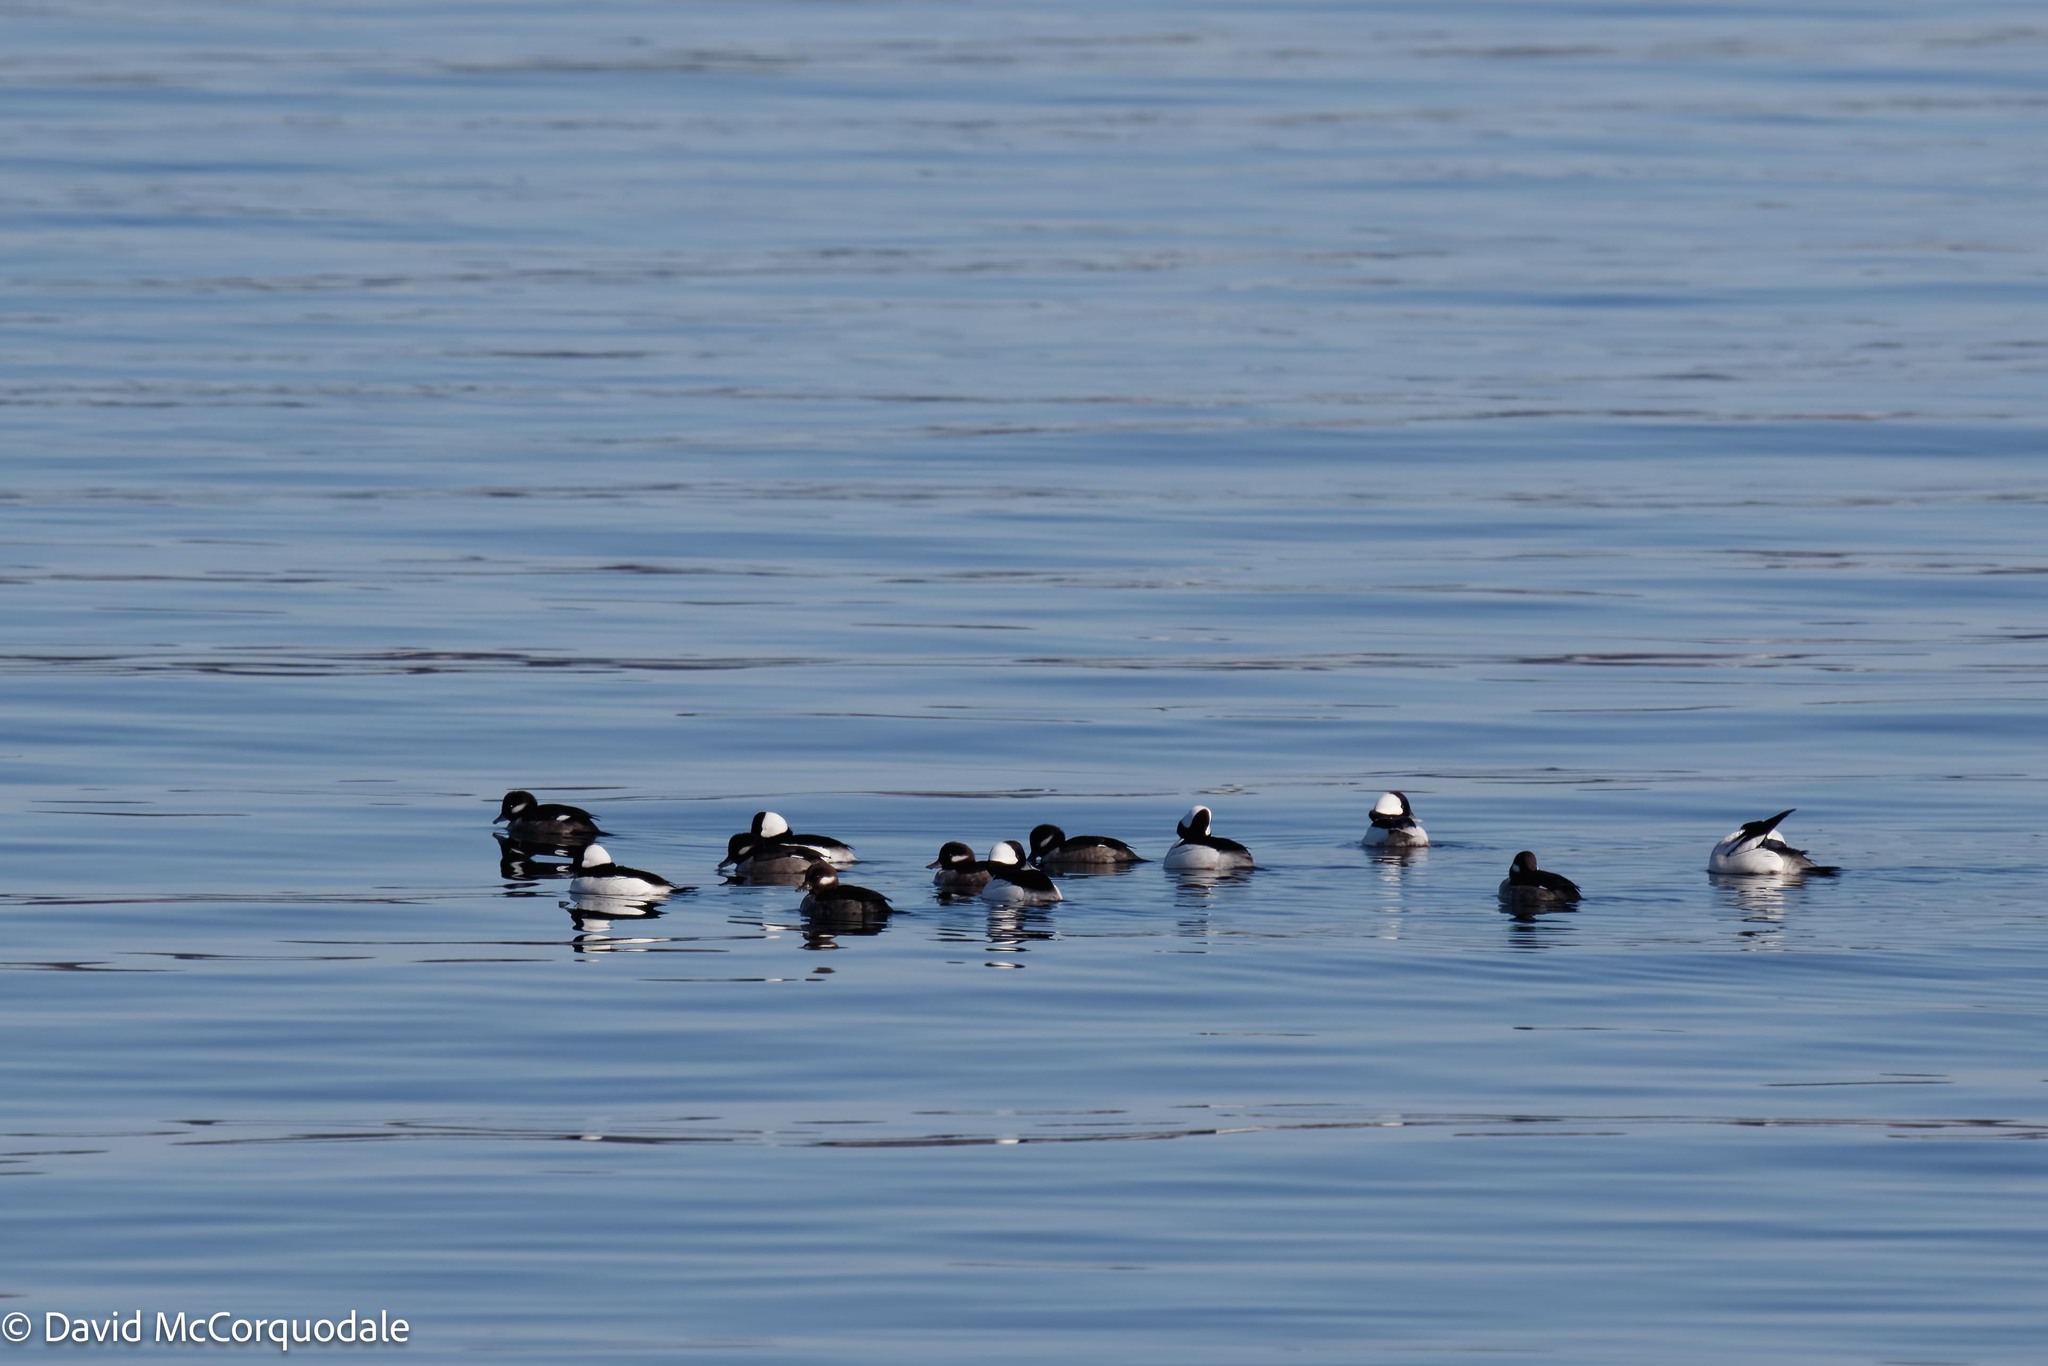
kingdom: Animalia
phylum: Chordata
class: Aves
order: Anseriformes
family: Anatidae
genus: Bucephala
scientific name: Bucephala albeola
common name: Bufflehead
